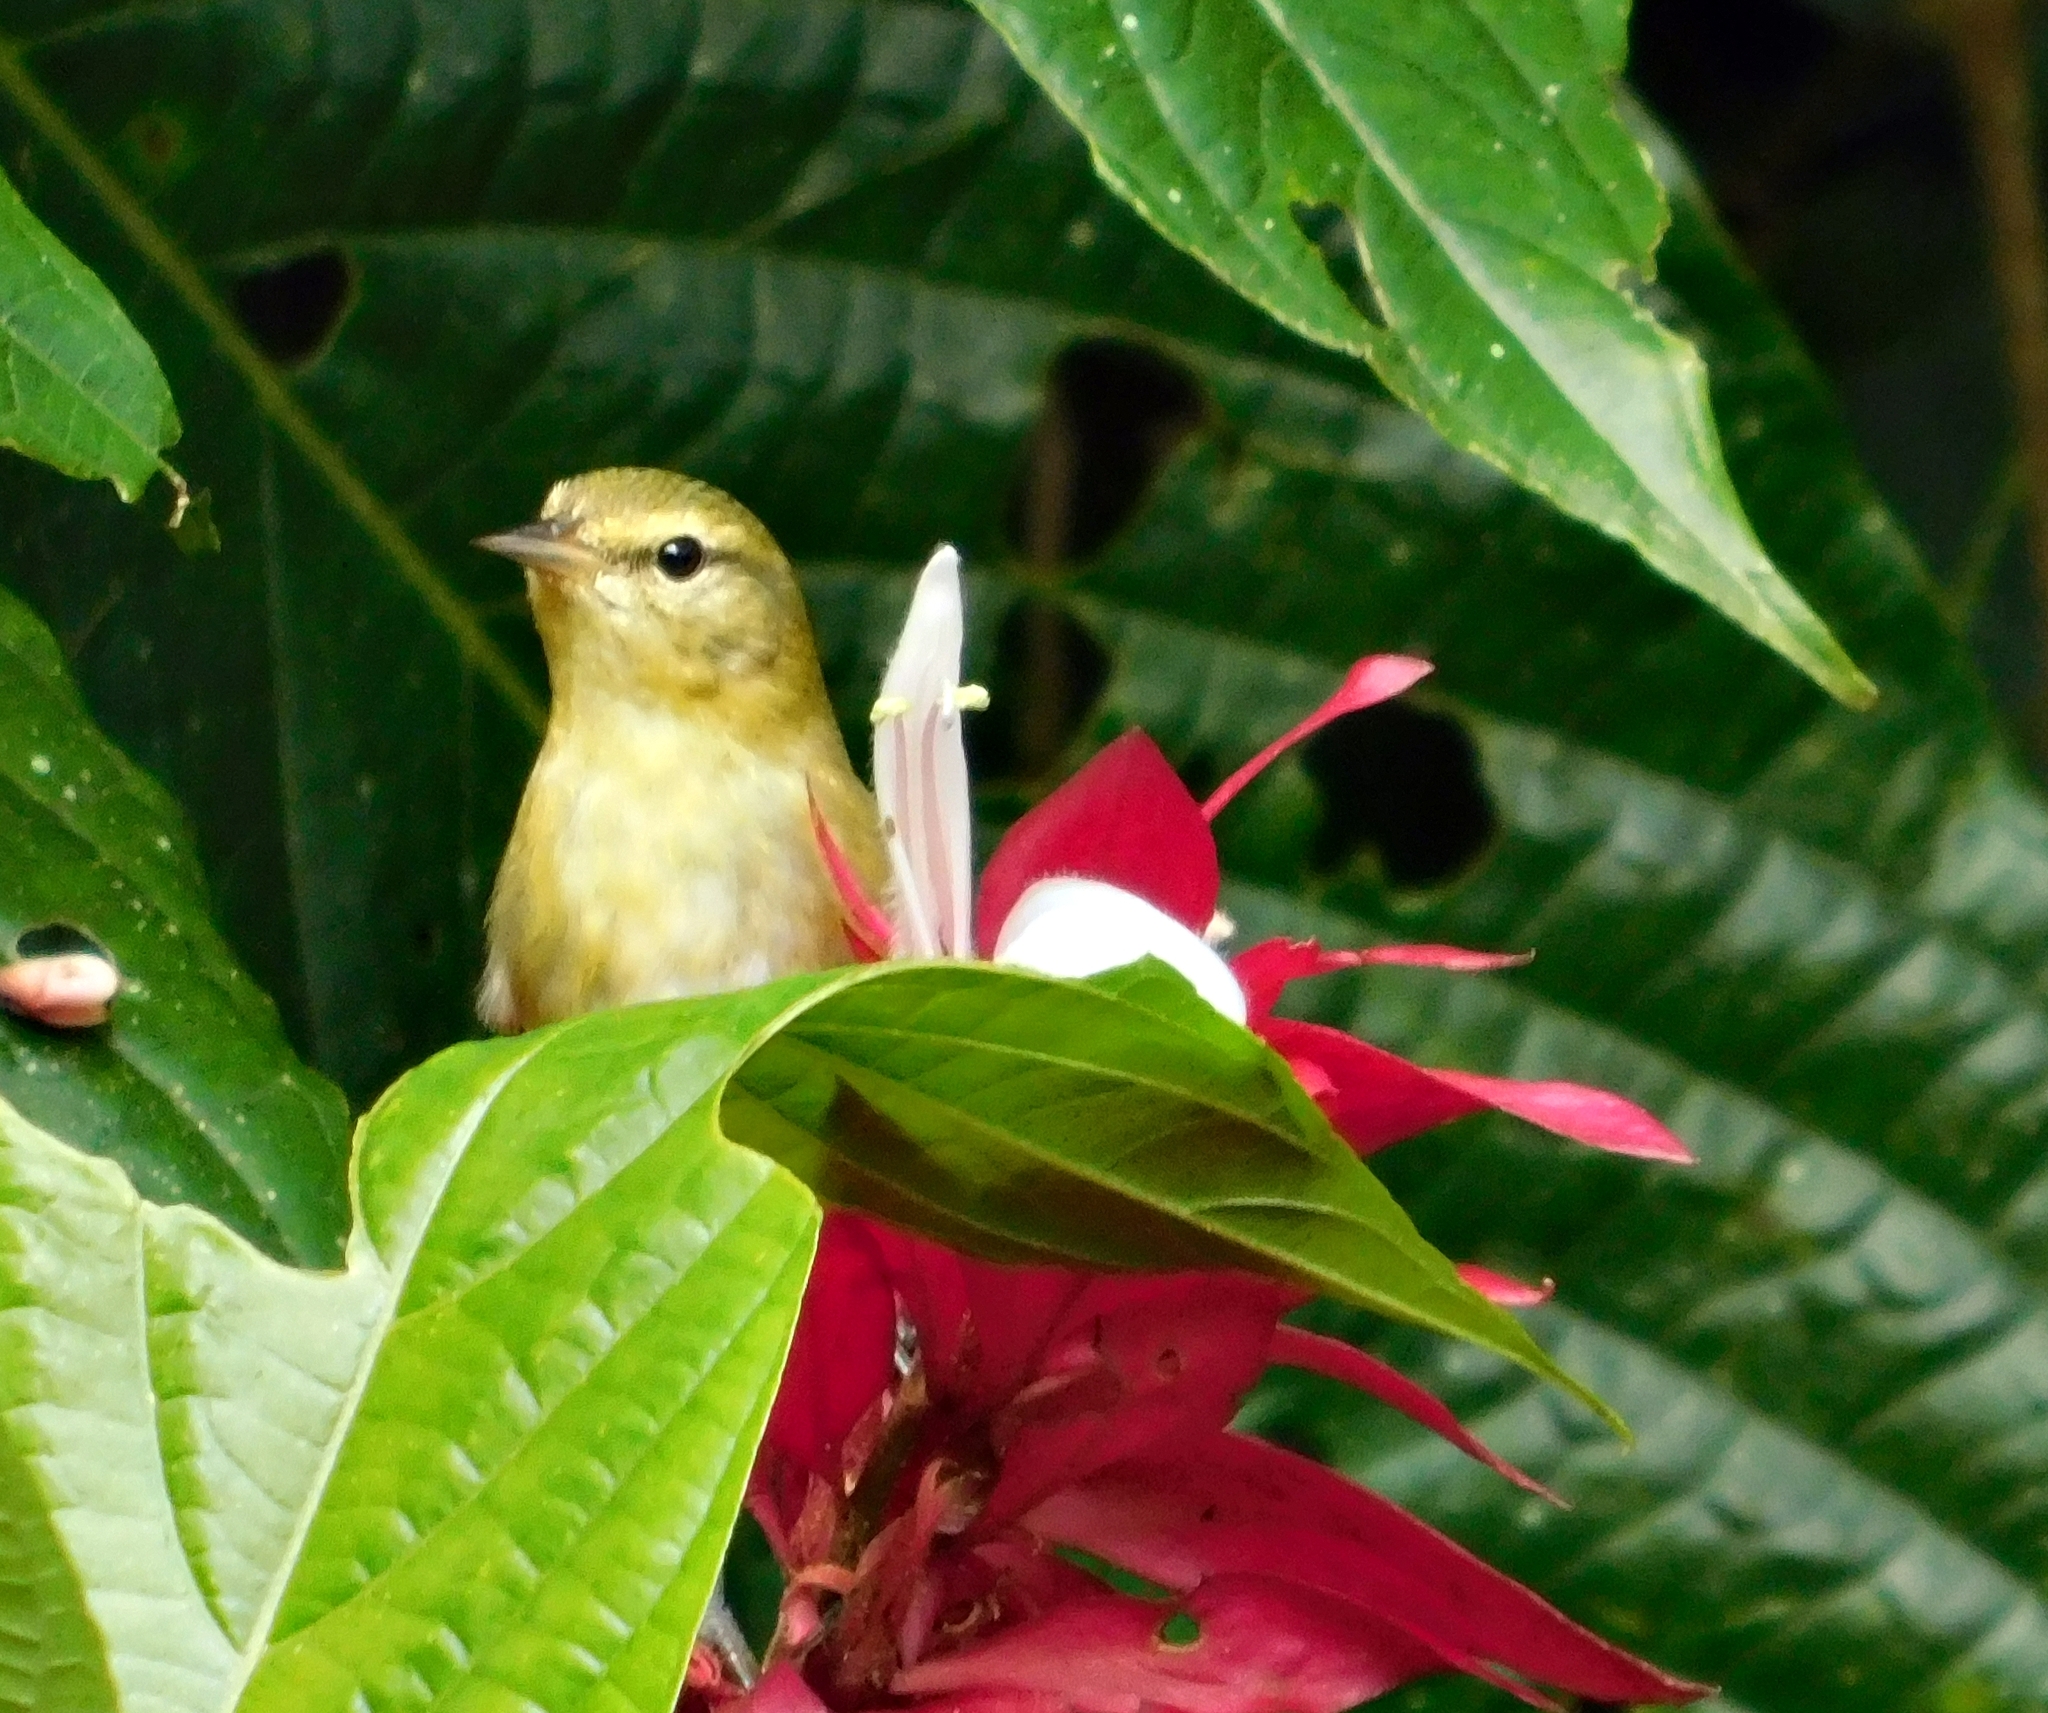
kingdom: Animalia
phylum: Chordata
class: Aves
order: Passeriformes
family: Parulidae
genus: Leiothlypis
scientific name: Leiothlypis peregrina
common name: Tennessee warbler
